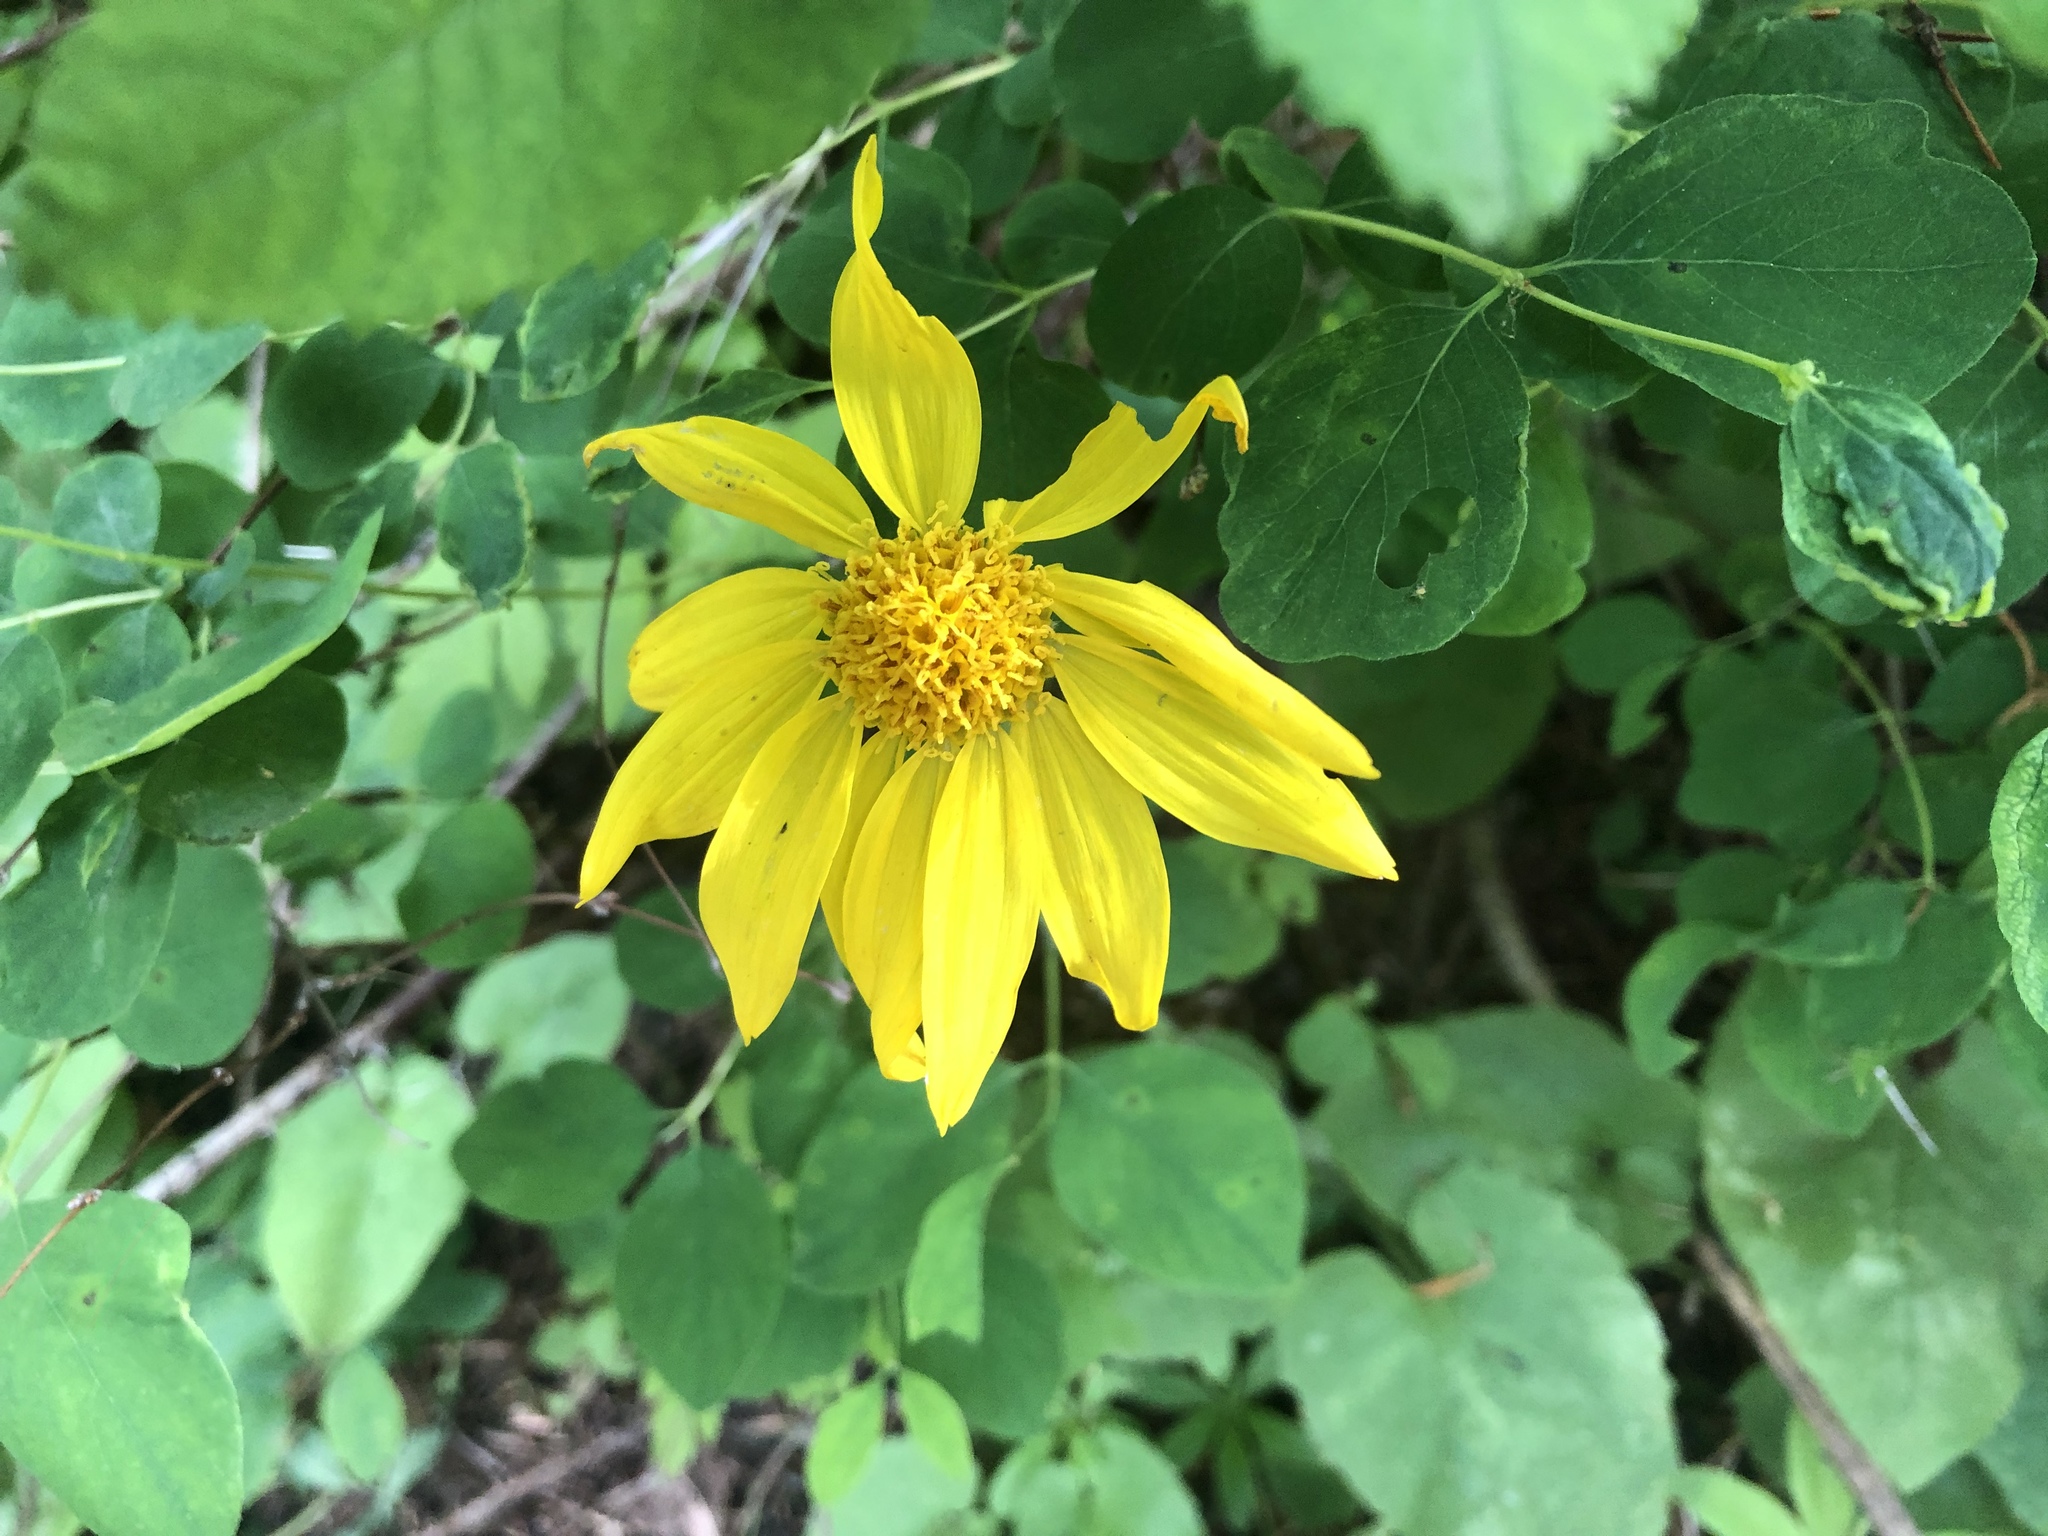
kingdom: Plantae
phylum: Tracheophyta
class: Magnoliopsida
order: Asterales
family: Asteraceae
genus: Arnica
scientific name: Arnica cordifolia
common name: Heart-leaf arnica
